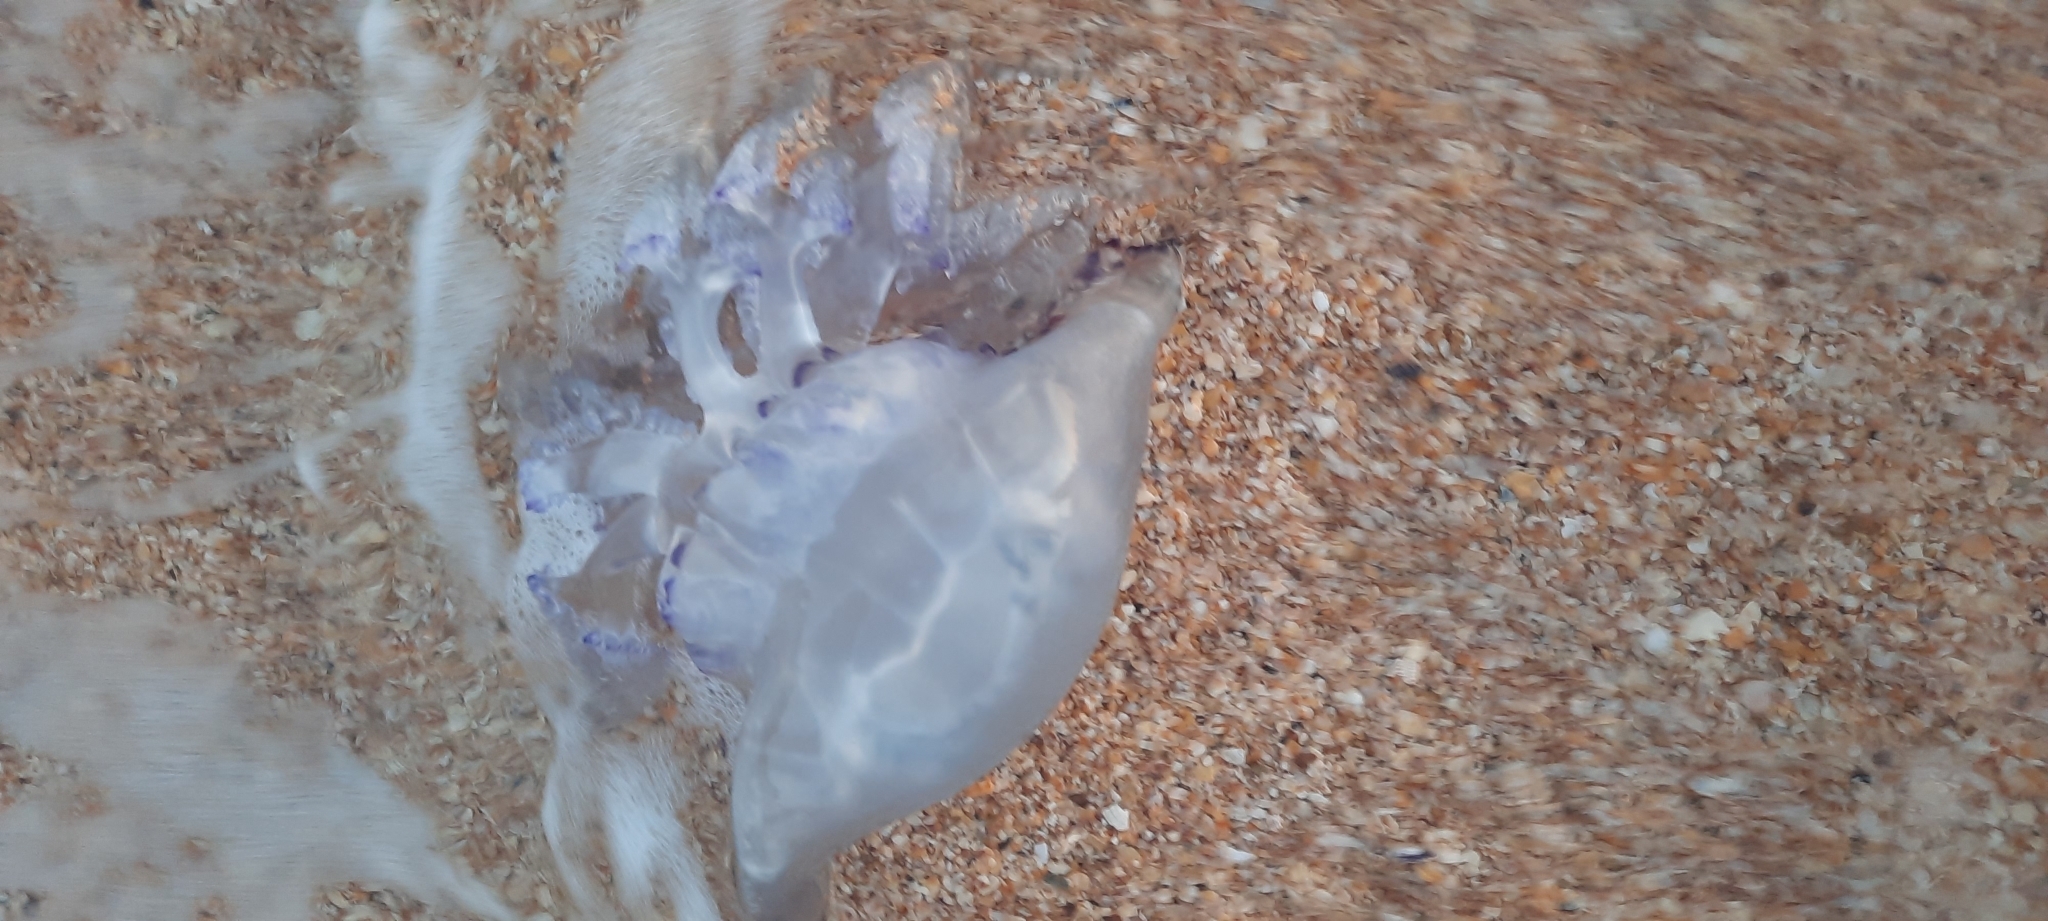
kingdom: Animalia
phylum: Cnidaria
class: Scyphozoa
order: Rhizostomeae
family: Rhizostomatidae
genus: Rhizostoma
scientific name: Rhizostoma pulmo
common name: Barrel jellyfish
